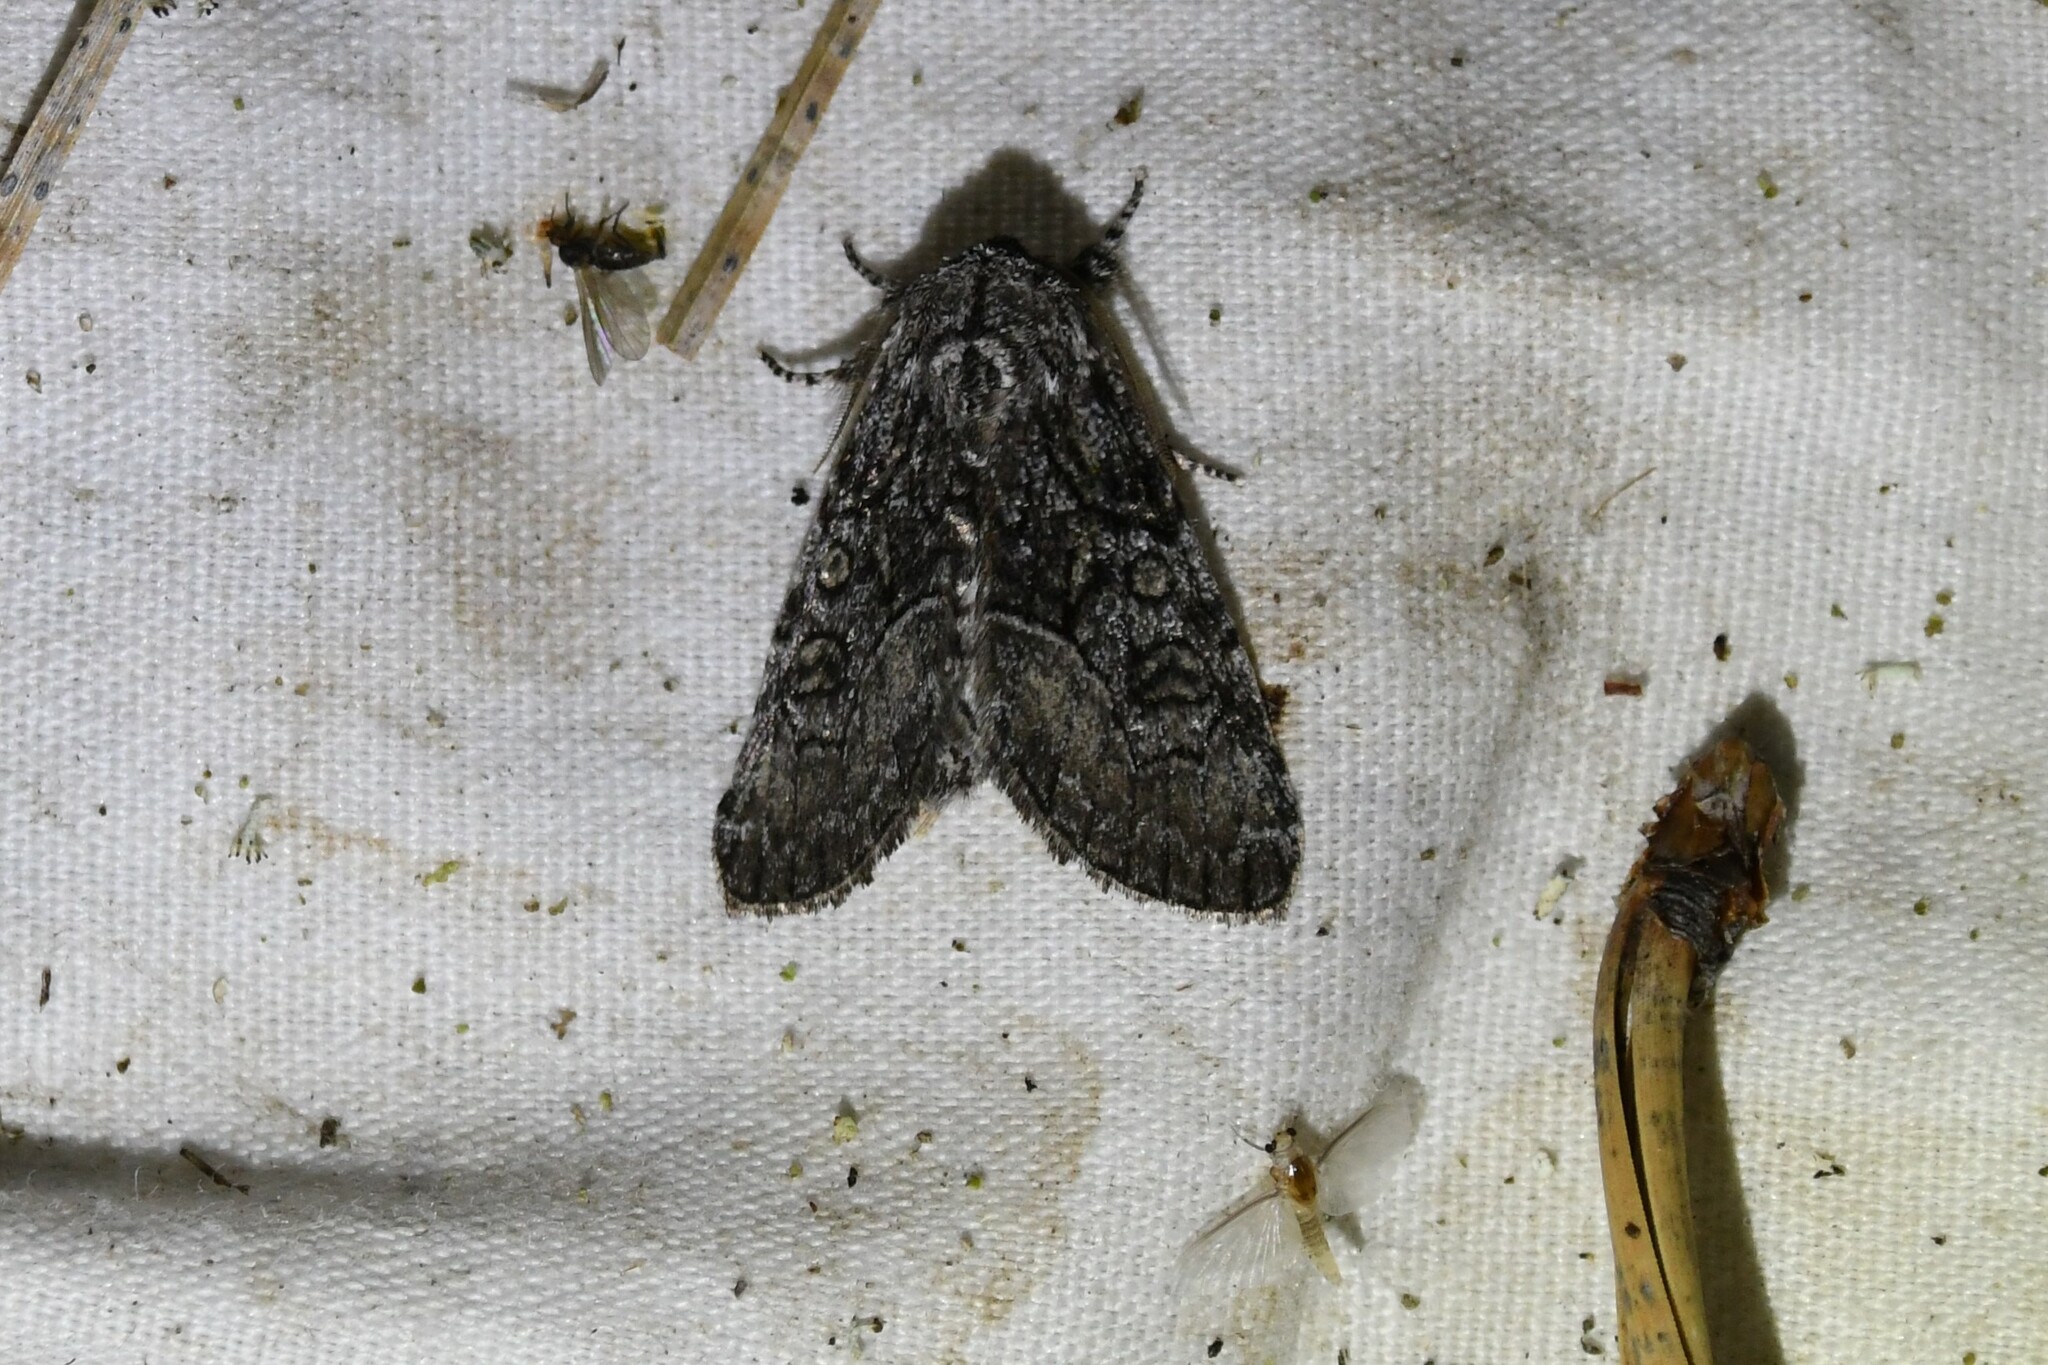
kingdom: Animalia
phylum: Arthropoda
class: Insecta
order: Lepidoptera
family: Noctuidae
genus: Raphia
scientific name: Raphia frater
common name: Brother
